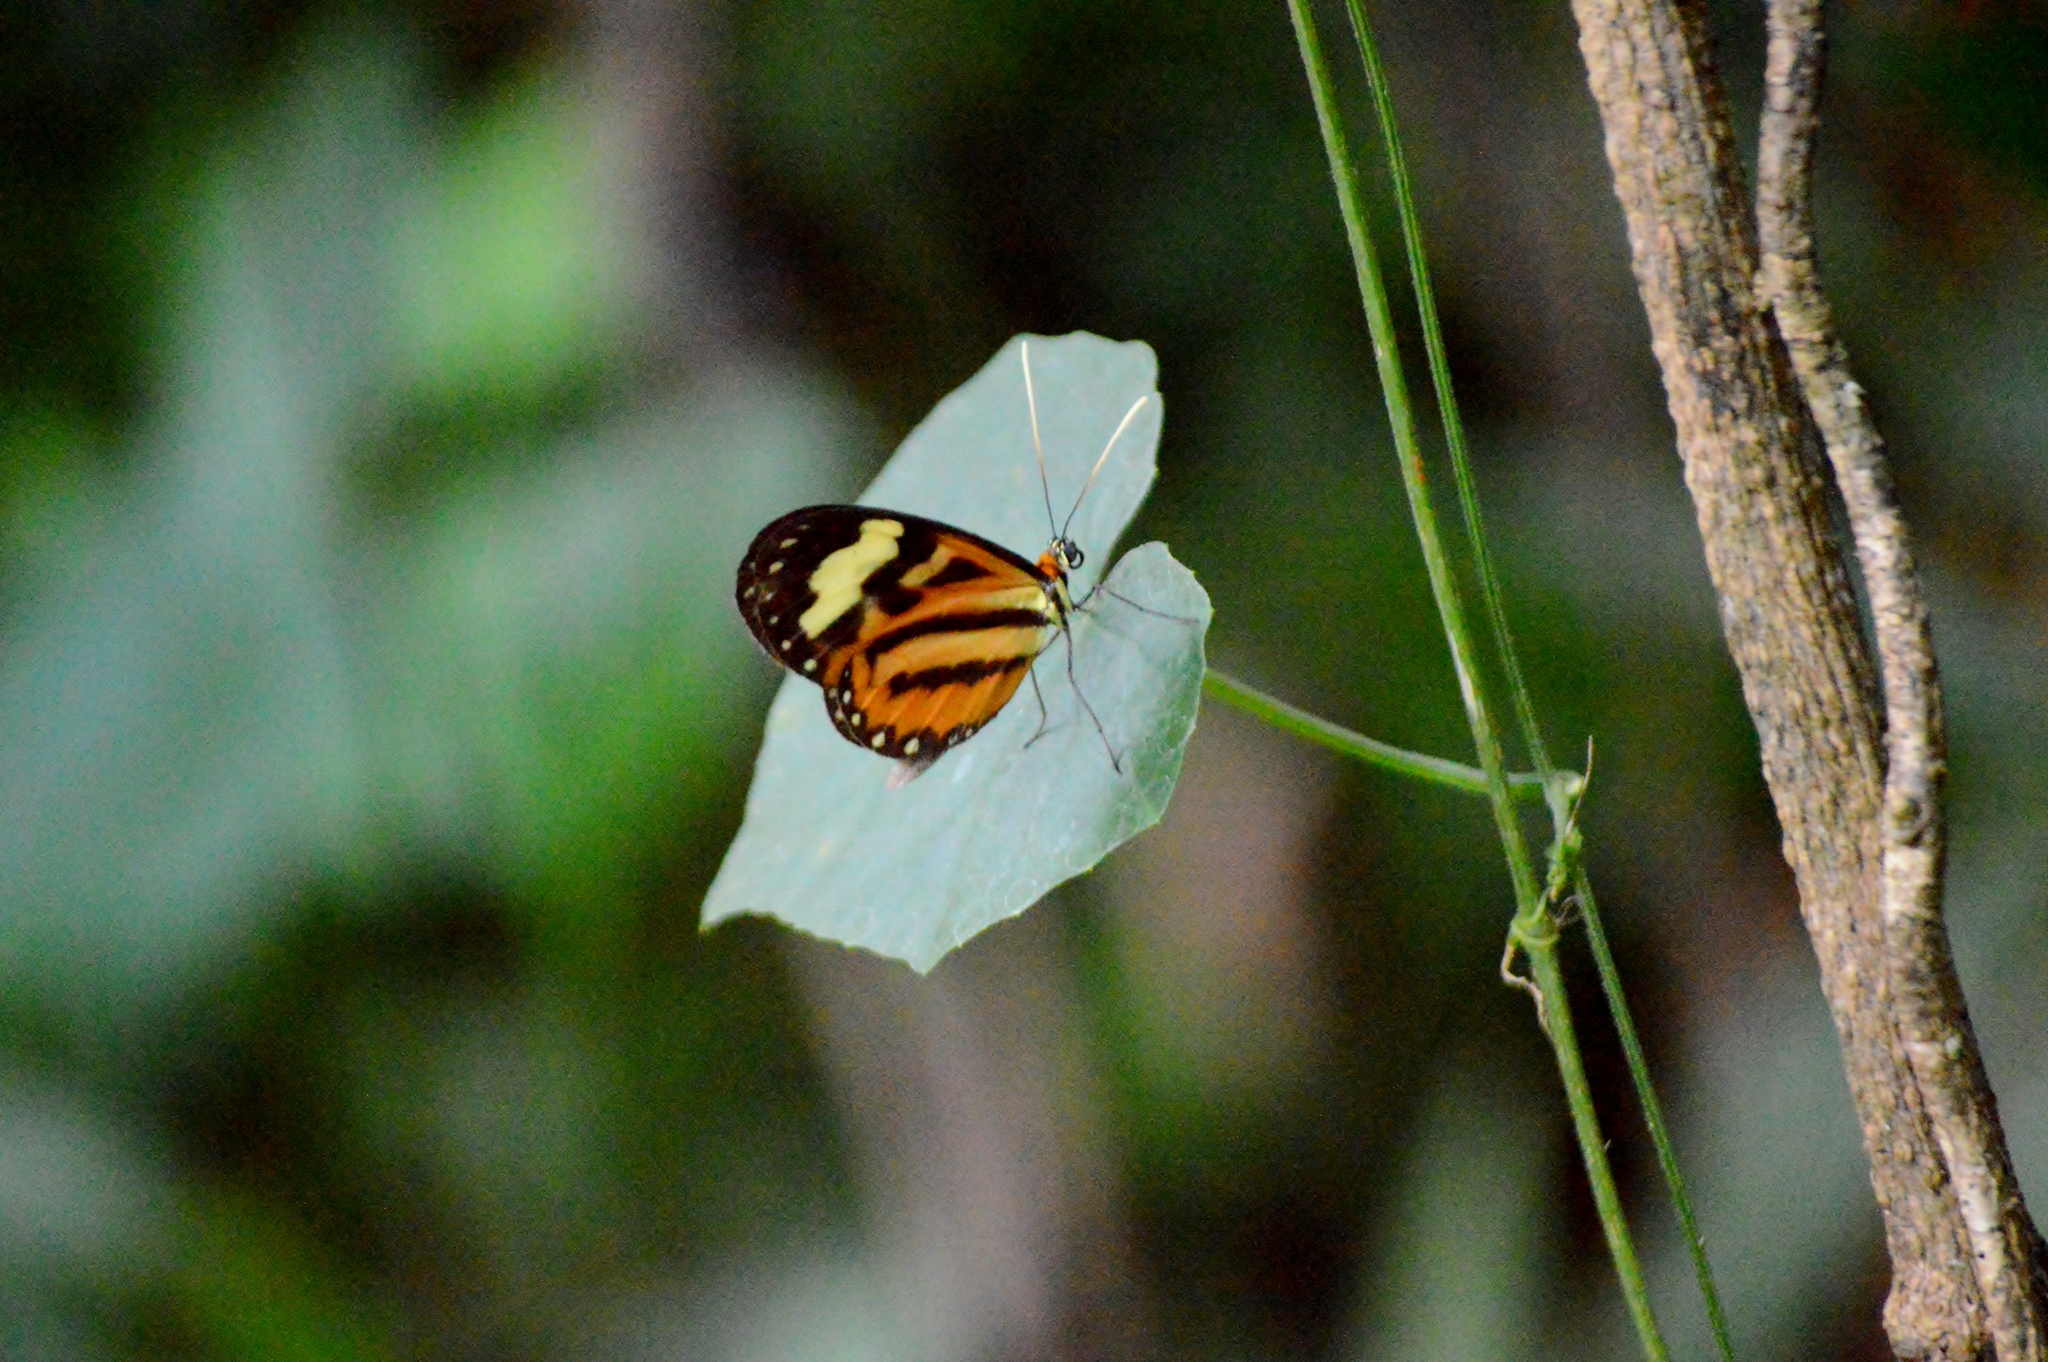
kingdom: Animalia
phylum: Arthropoda
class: Insecta
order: Lepidoptera
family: Nymphalidae
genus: Hypothyris
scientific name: Hypothyris euclea
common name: Euclea tigerwing
